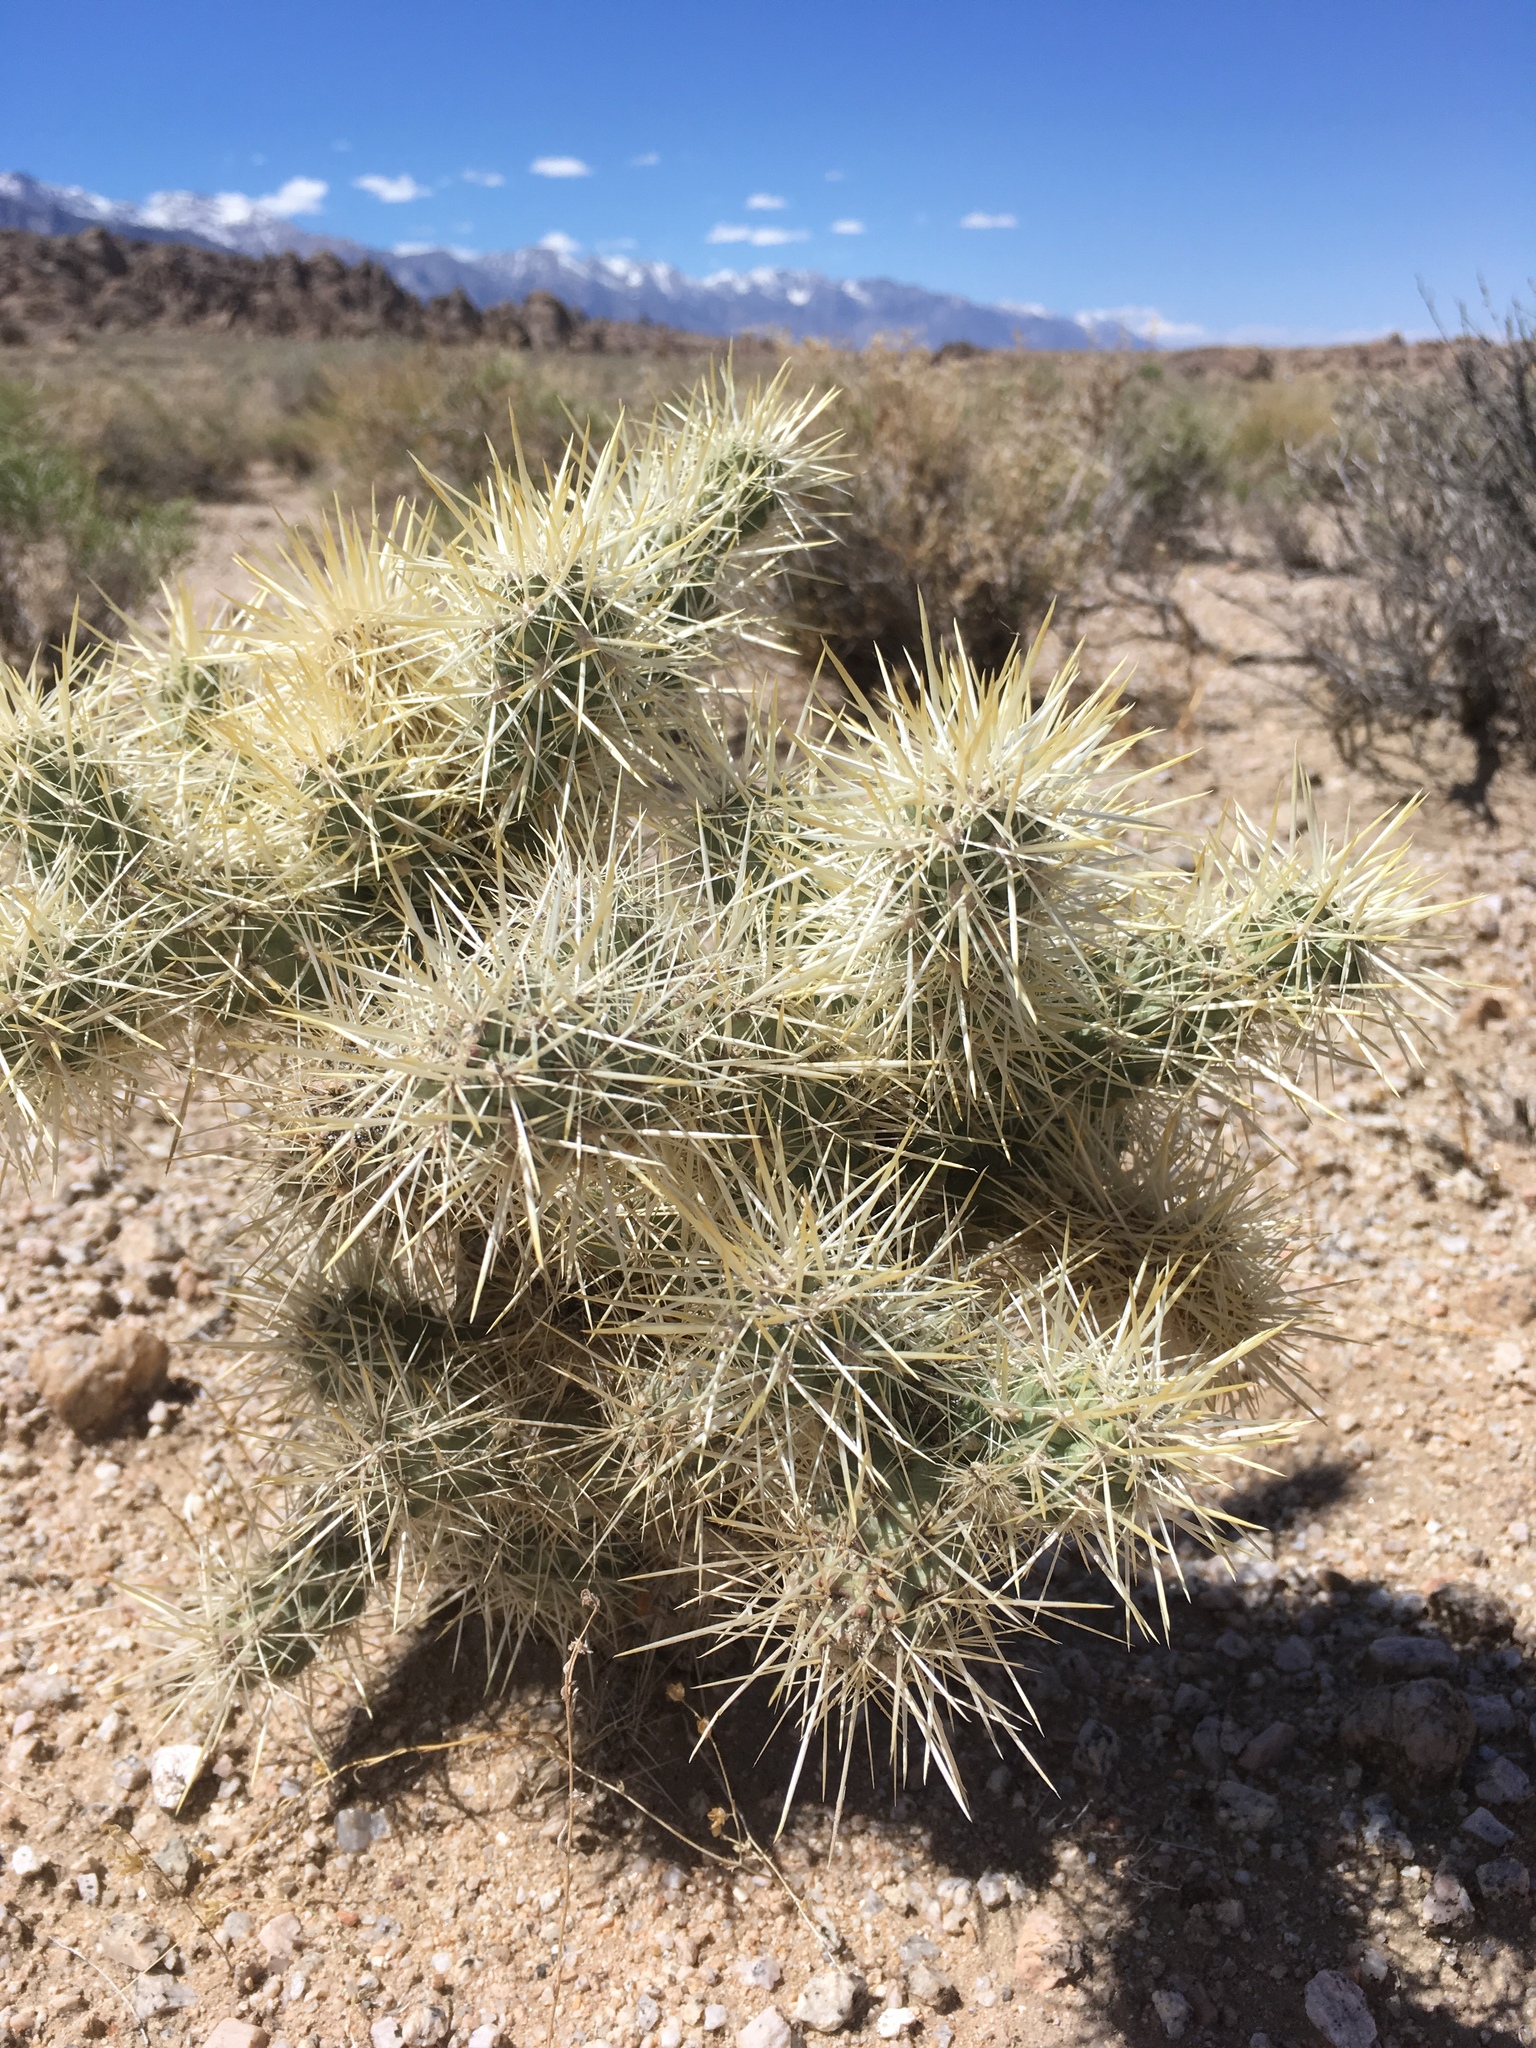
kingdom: Plantae
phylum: Tracheophyta
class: Magnoliopsida
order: Caryophyllales
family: Cactaceae
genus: Cylindropuntia
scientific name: Cylindropuntia echinocarpa
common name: Ground cholla
